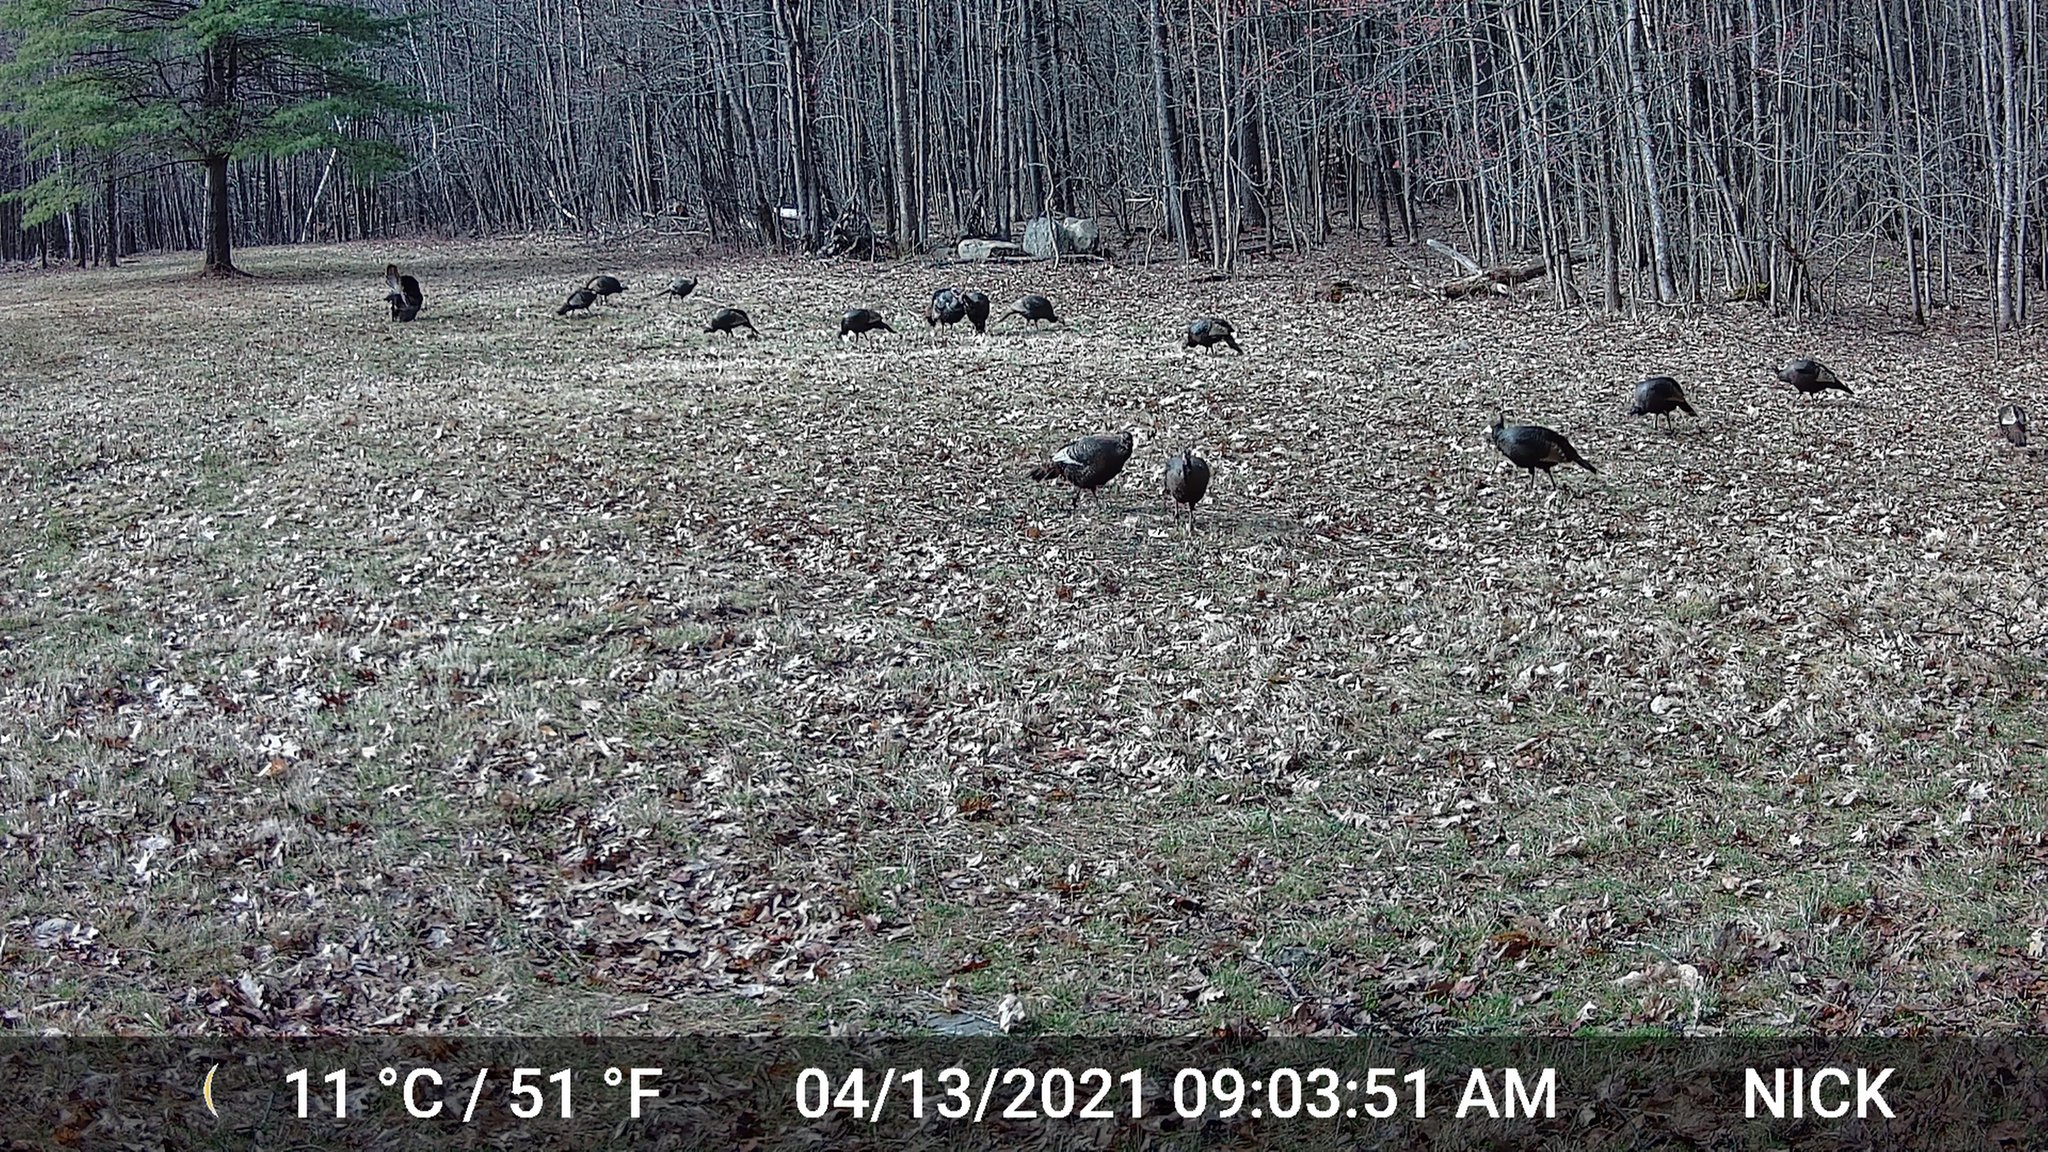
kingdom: Animalia
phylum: Chordata
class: Aves
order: Galliformes
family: Phasianidae
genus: Meleagris
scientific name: Meleagris gallopavo
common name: Wild turkey
